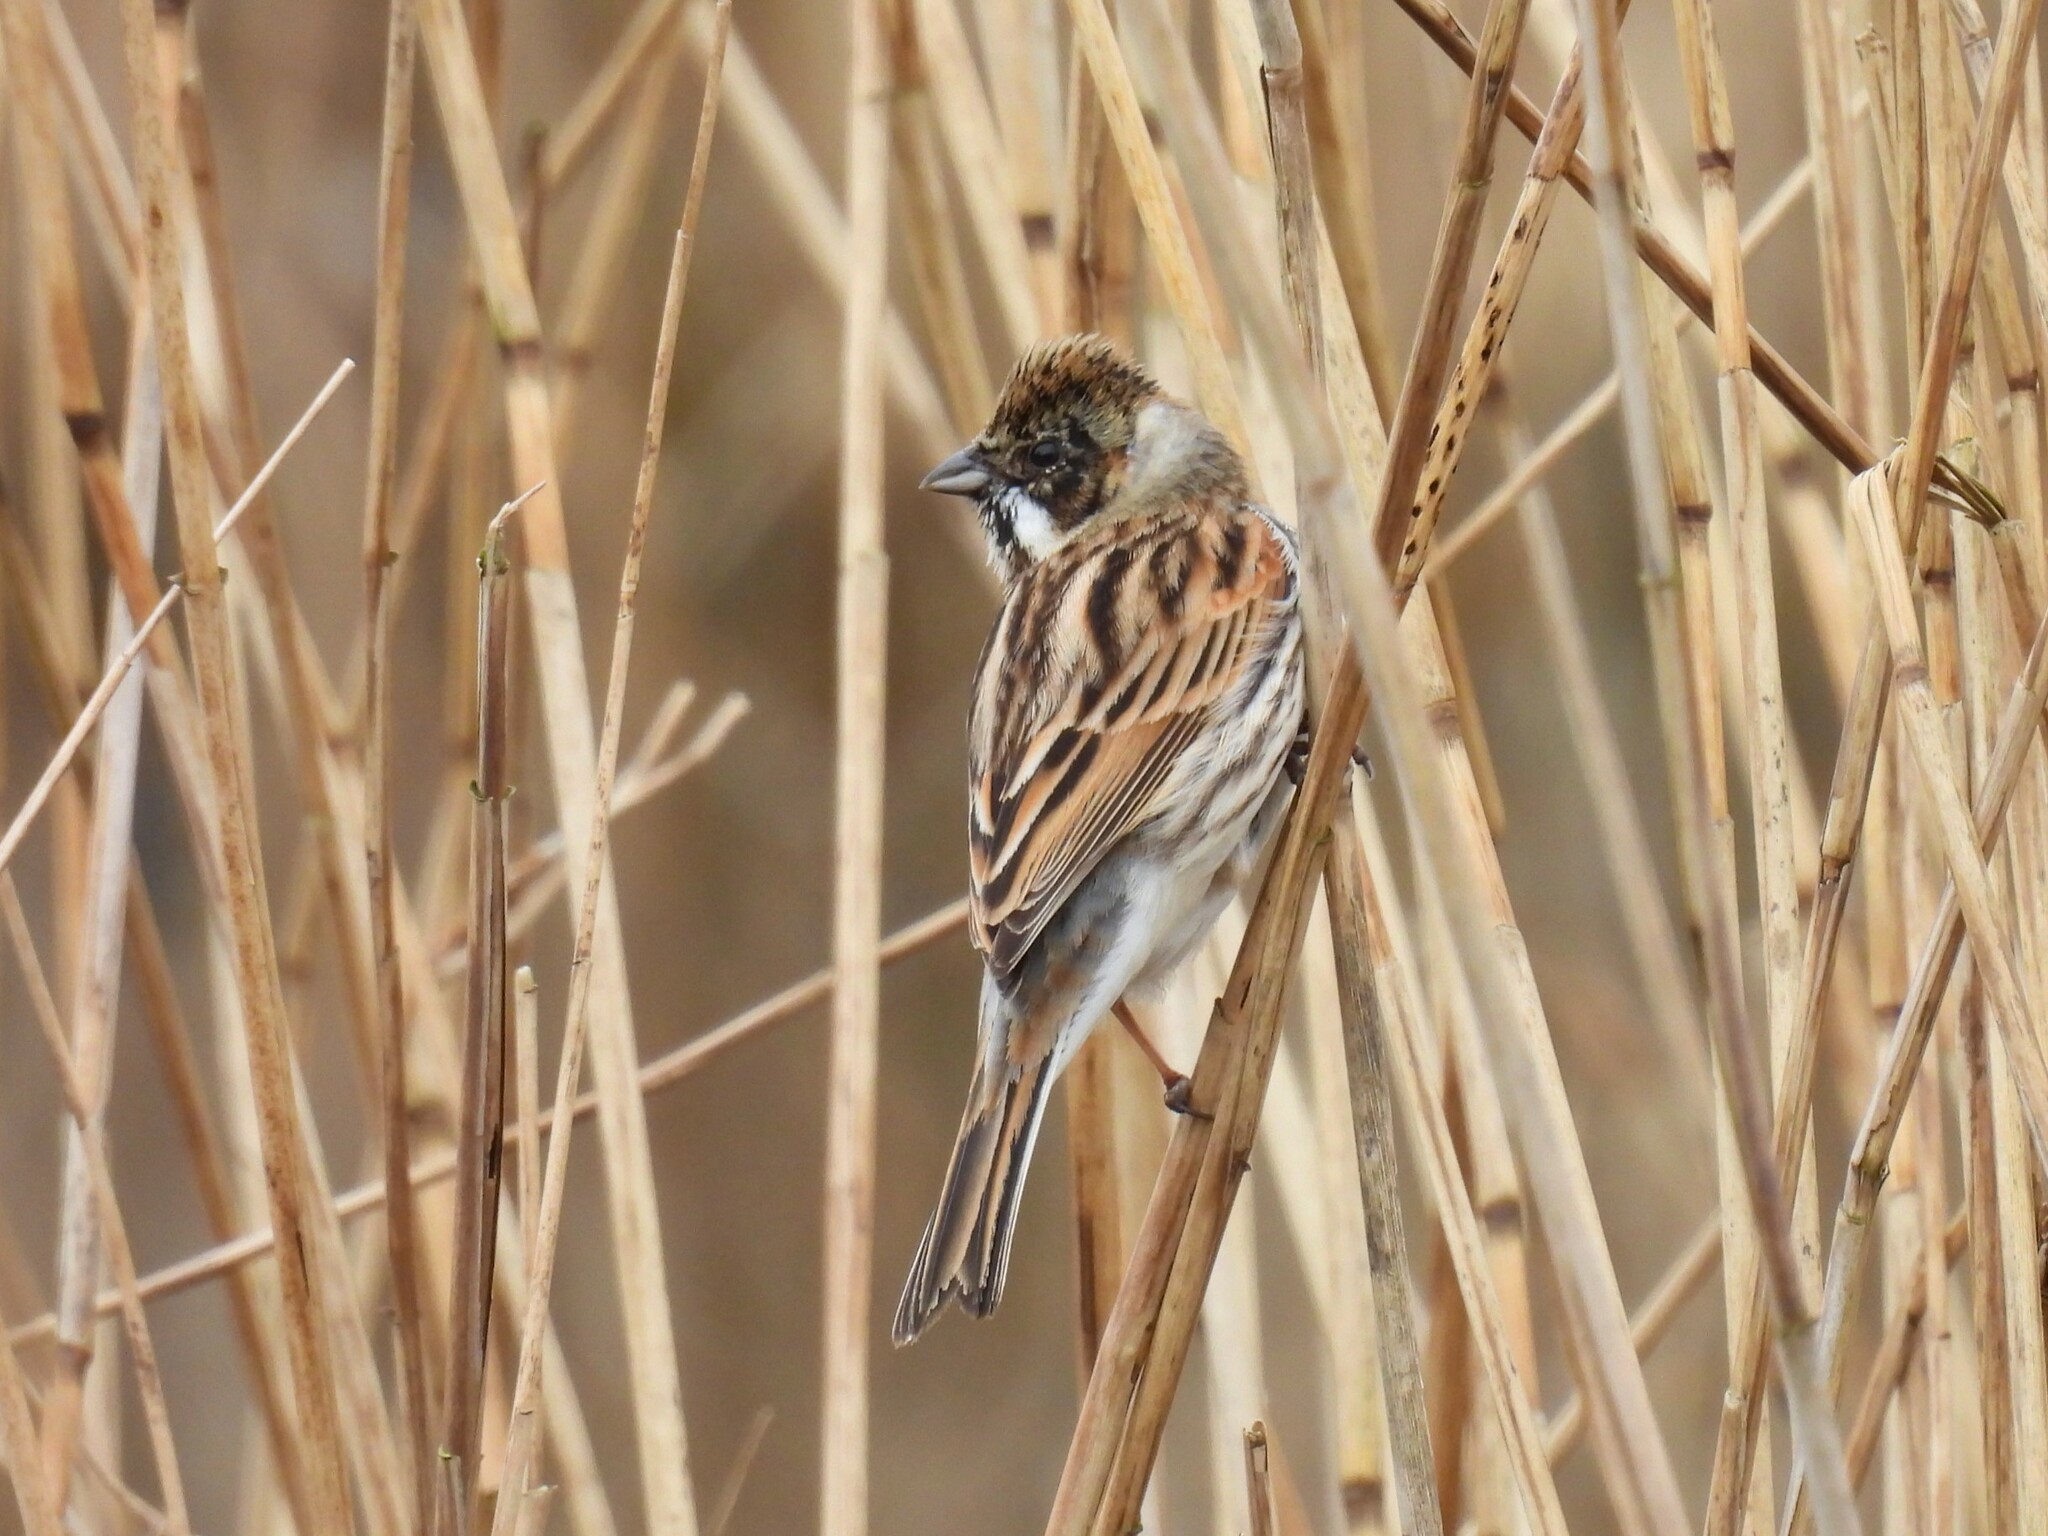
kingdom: Animalia
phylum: Chordata
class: Aves
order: Passeriformes
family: Emberizidae
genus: Emberiza
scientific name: Emberiza schoeniclus
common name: Reed bunting
